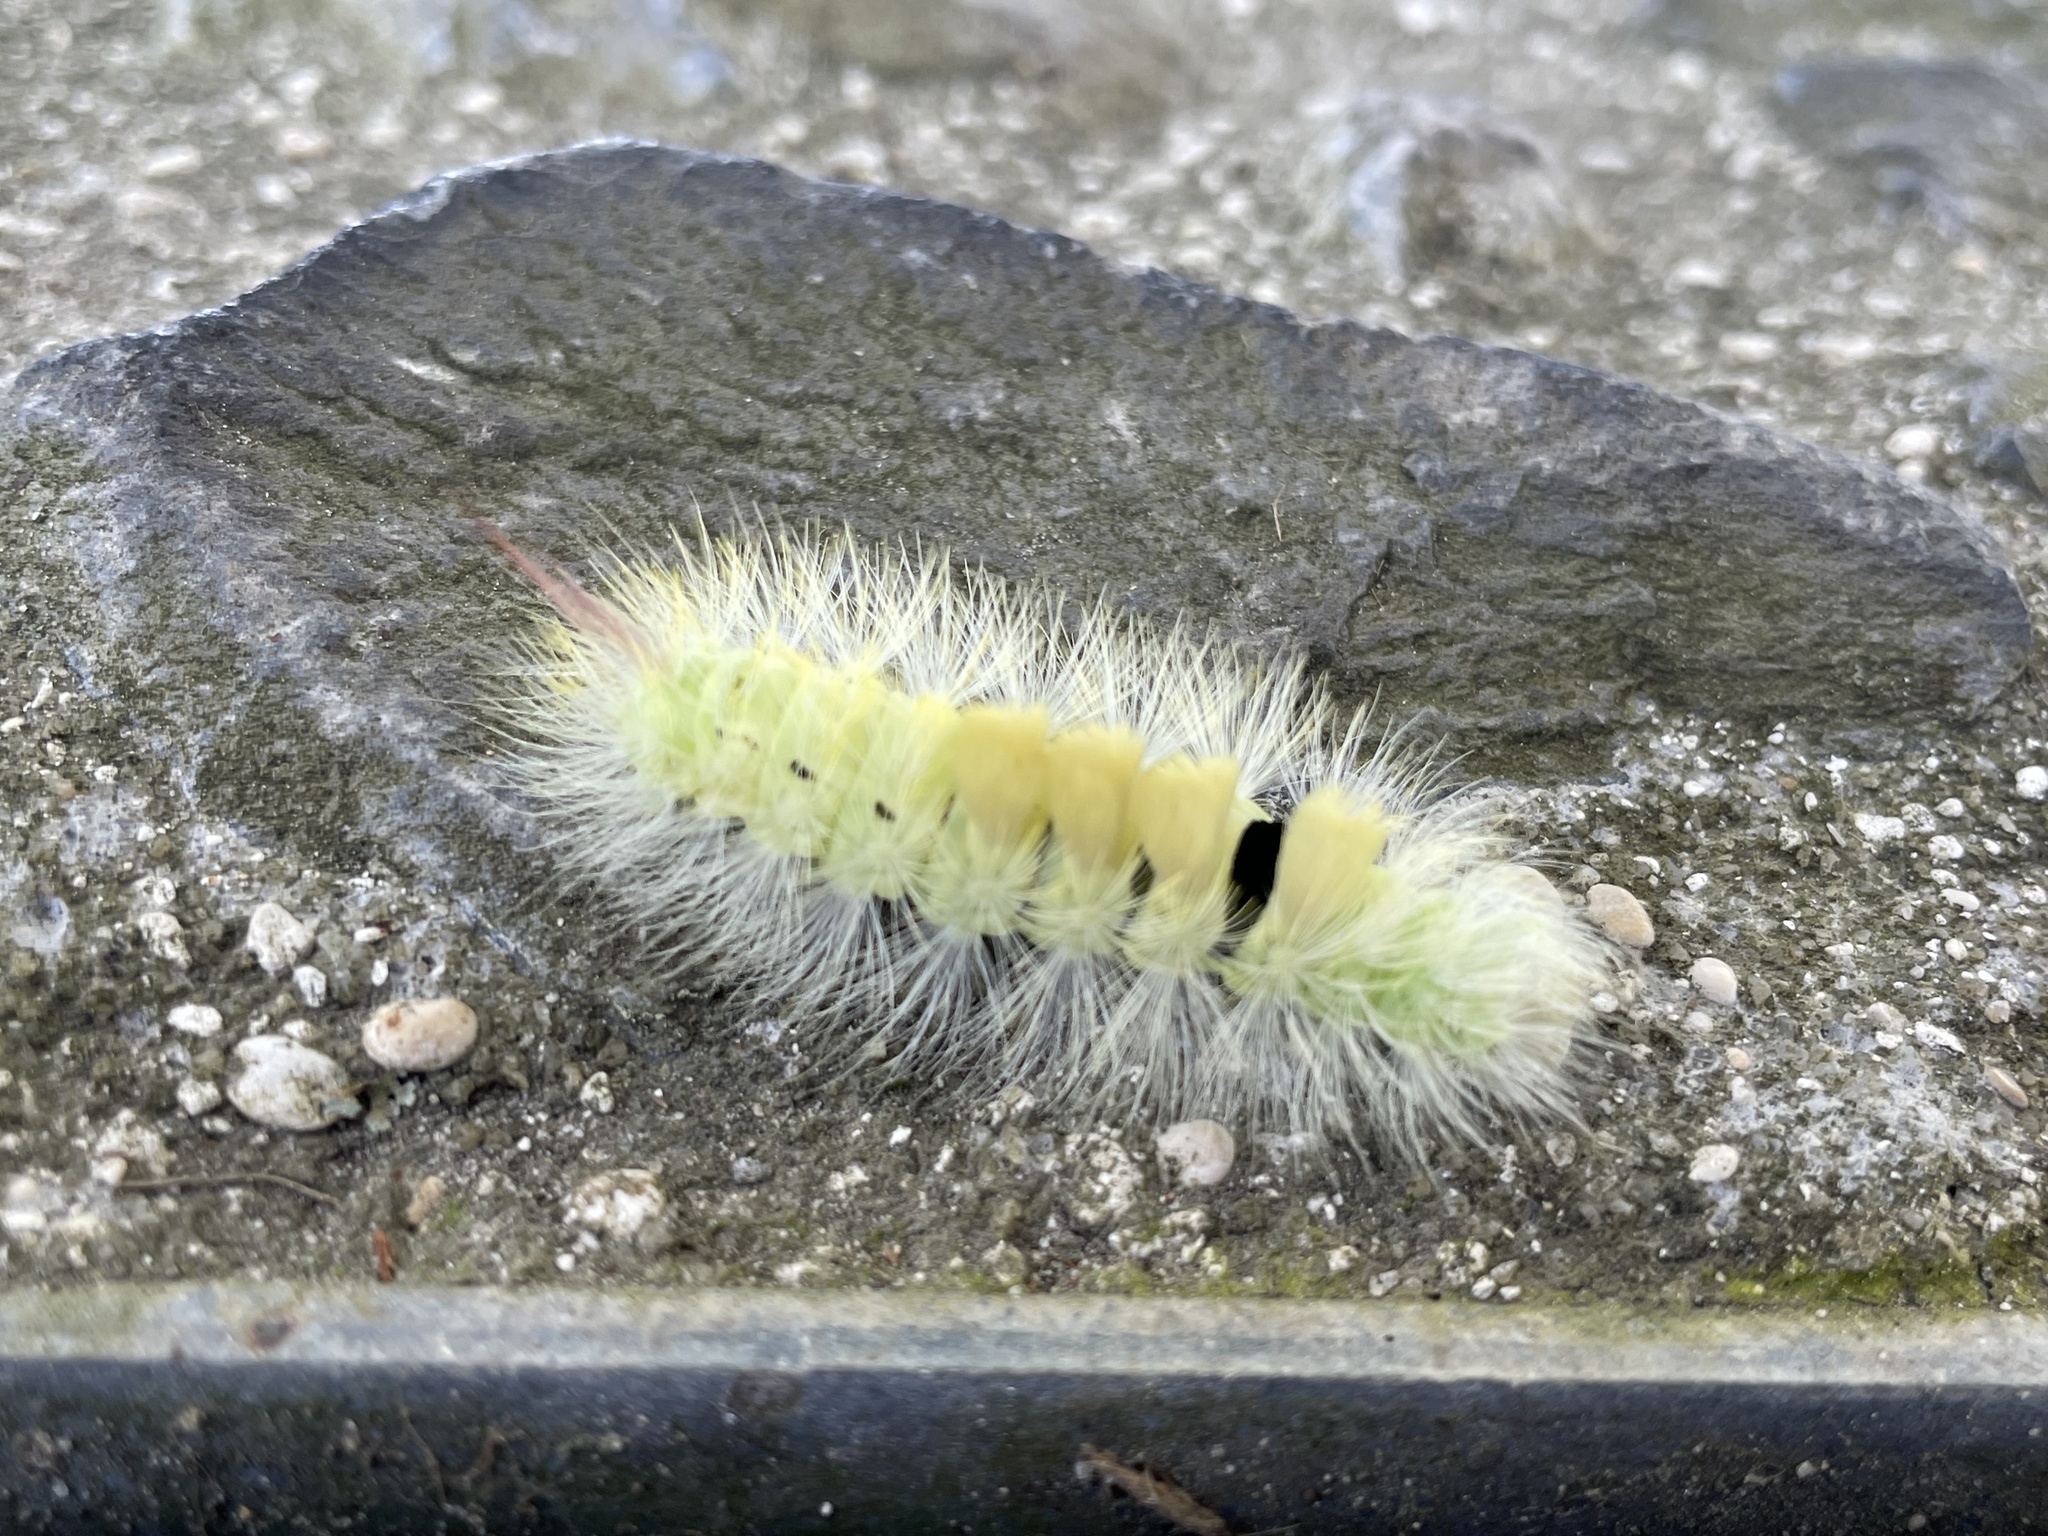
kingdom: Animalia
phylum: Arthropoda
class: Insecta
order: Lepidoptera
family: Erebidae
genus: Calliteara
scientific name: Calliteara pudibunda
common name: Pale tussock
